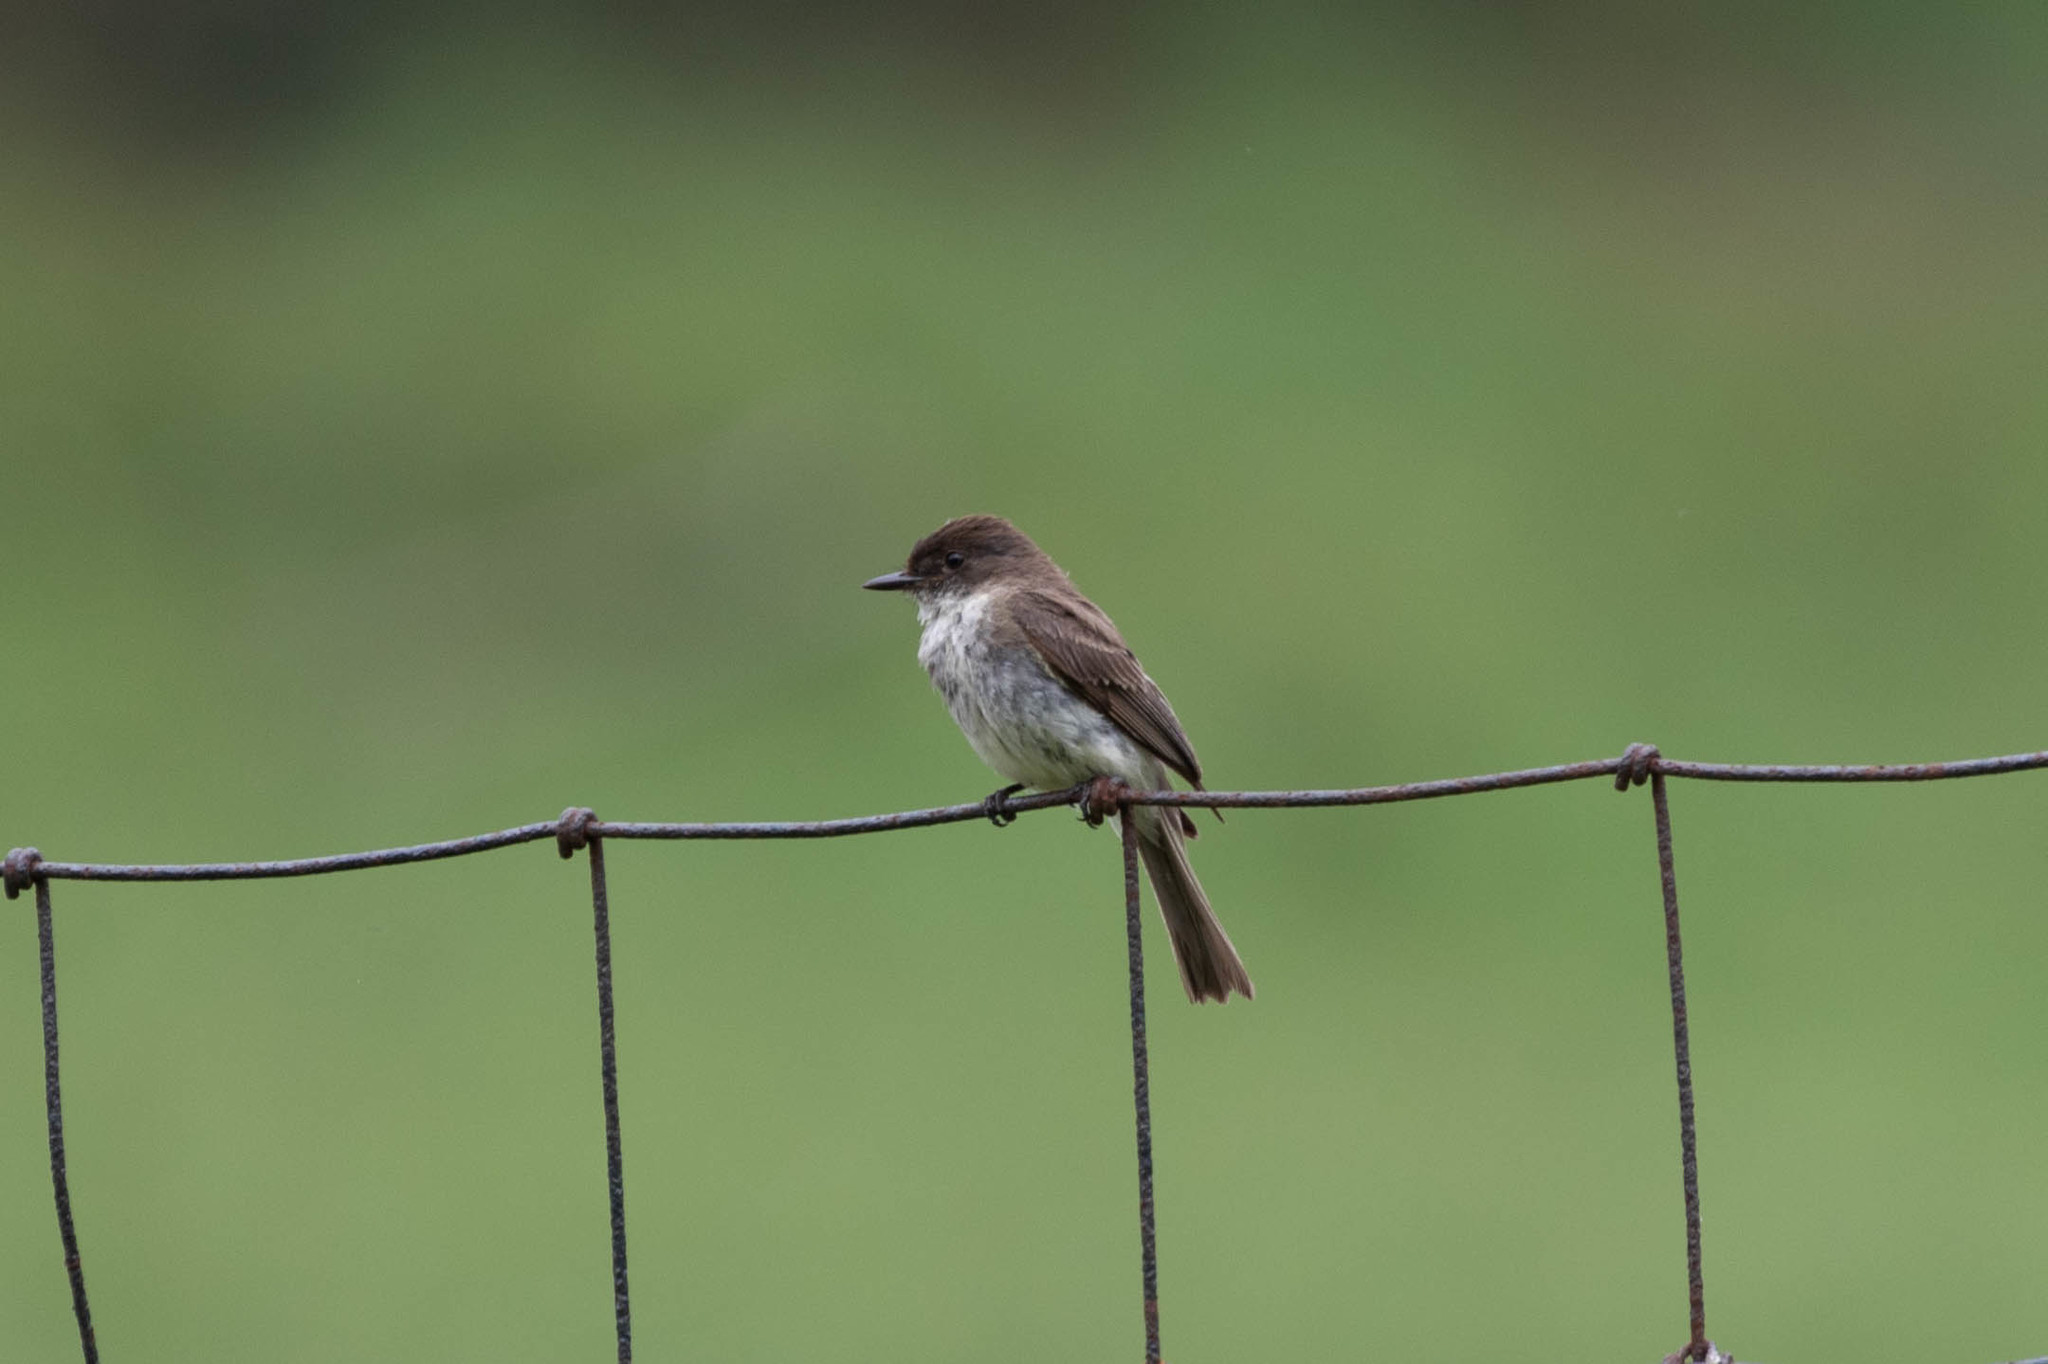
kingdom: Animalia
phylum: Chordata
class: Aves
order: Passeriformes
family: Tyrannidae
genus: Sayornis
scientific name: Sayornis phoebe
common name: Eastern phoebe
